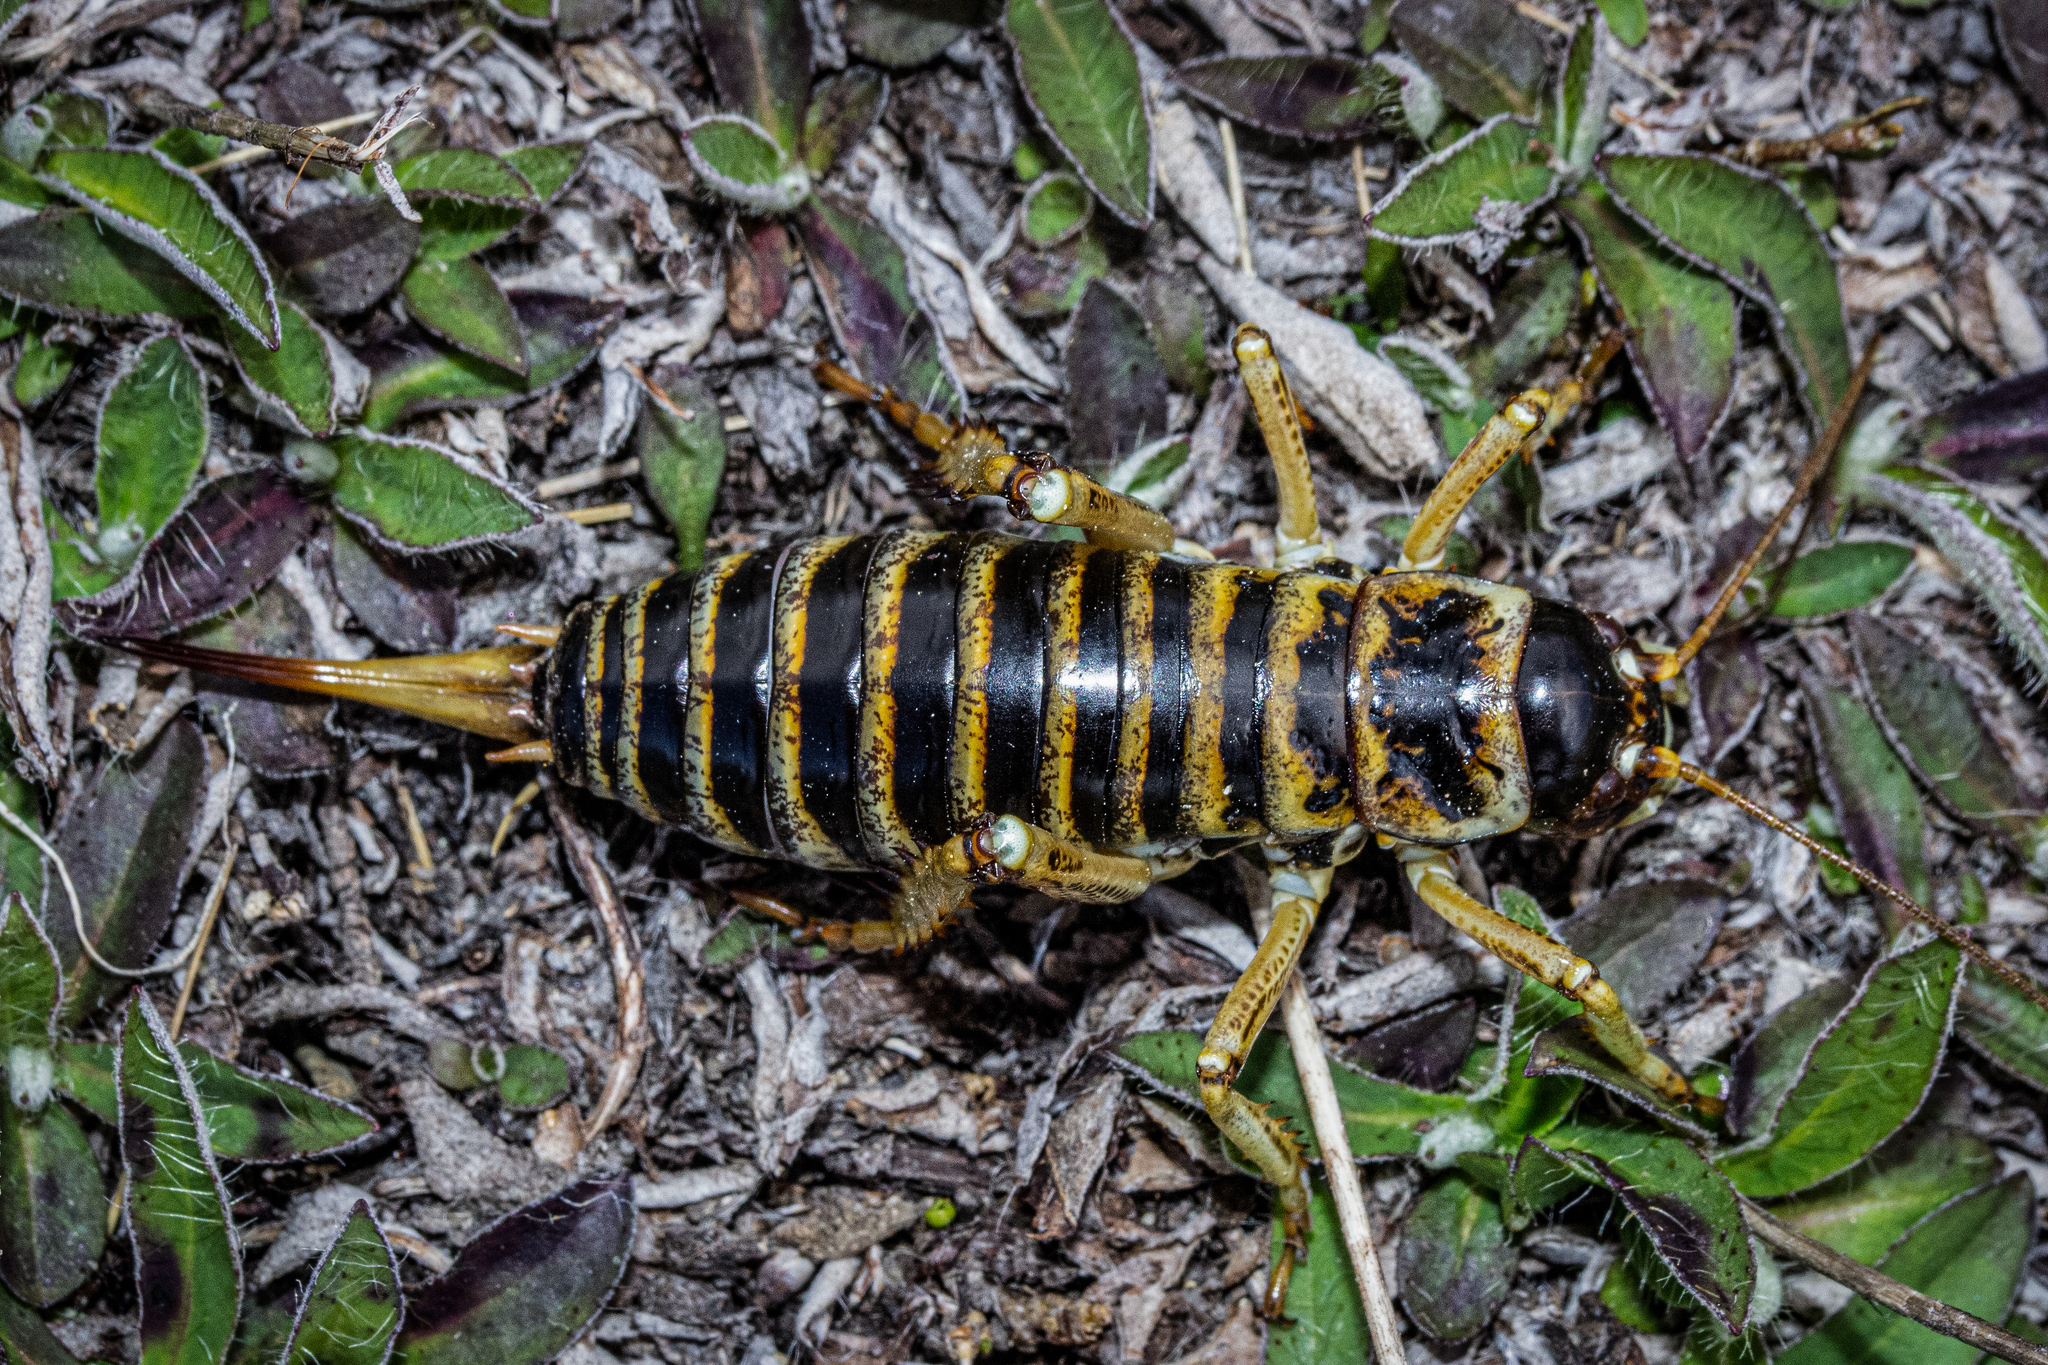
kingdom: Animalia
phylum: Arthropoda
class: Insecta
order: Orthoptera
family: Anostostomatidae
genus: Hemideina
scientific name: Hemideina maori
